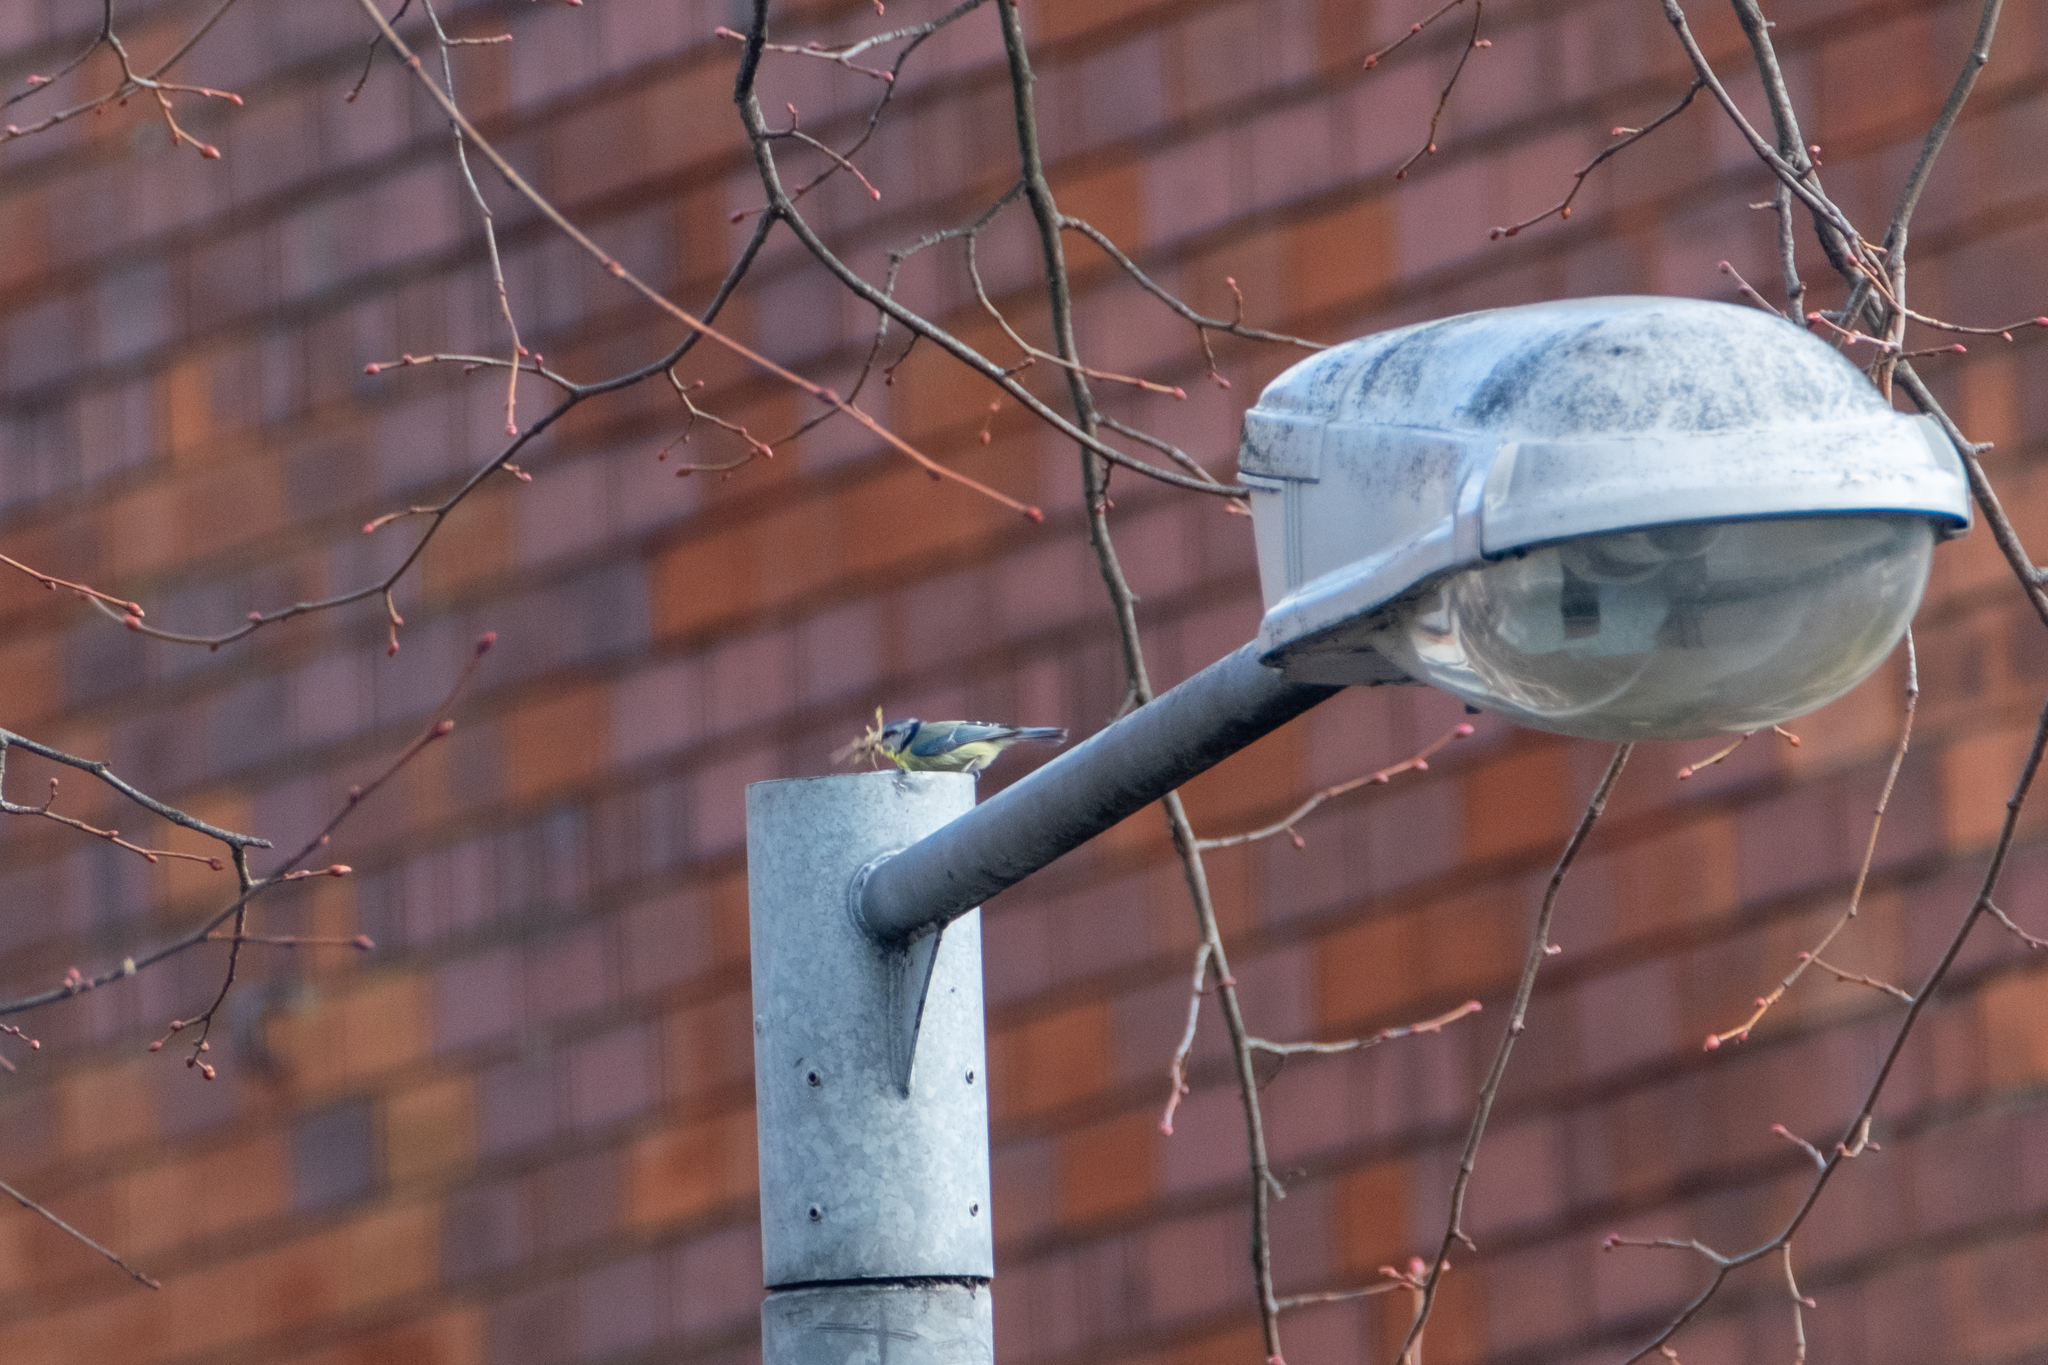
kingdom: Animalia
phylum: Chordata
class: Aves
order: Passeriformes
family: Paridae
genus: Cyanistes
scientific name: Cyanistes caeruleus
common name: Eurasian blue tit
